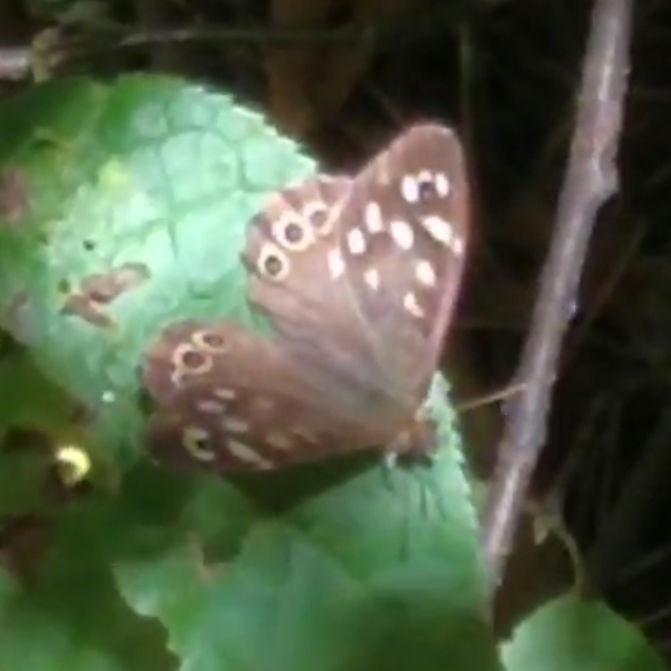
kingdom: Animalia
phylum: Arthropoda
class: Insecta
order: Lepidoptera
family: Nymphalidae
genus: Pararge
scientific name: Pararge aegeria
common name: Speckled wood
